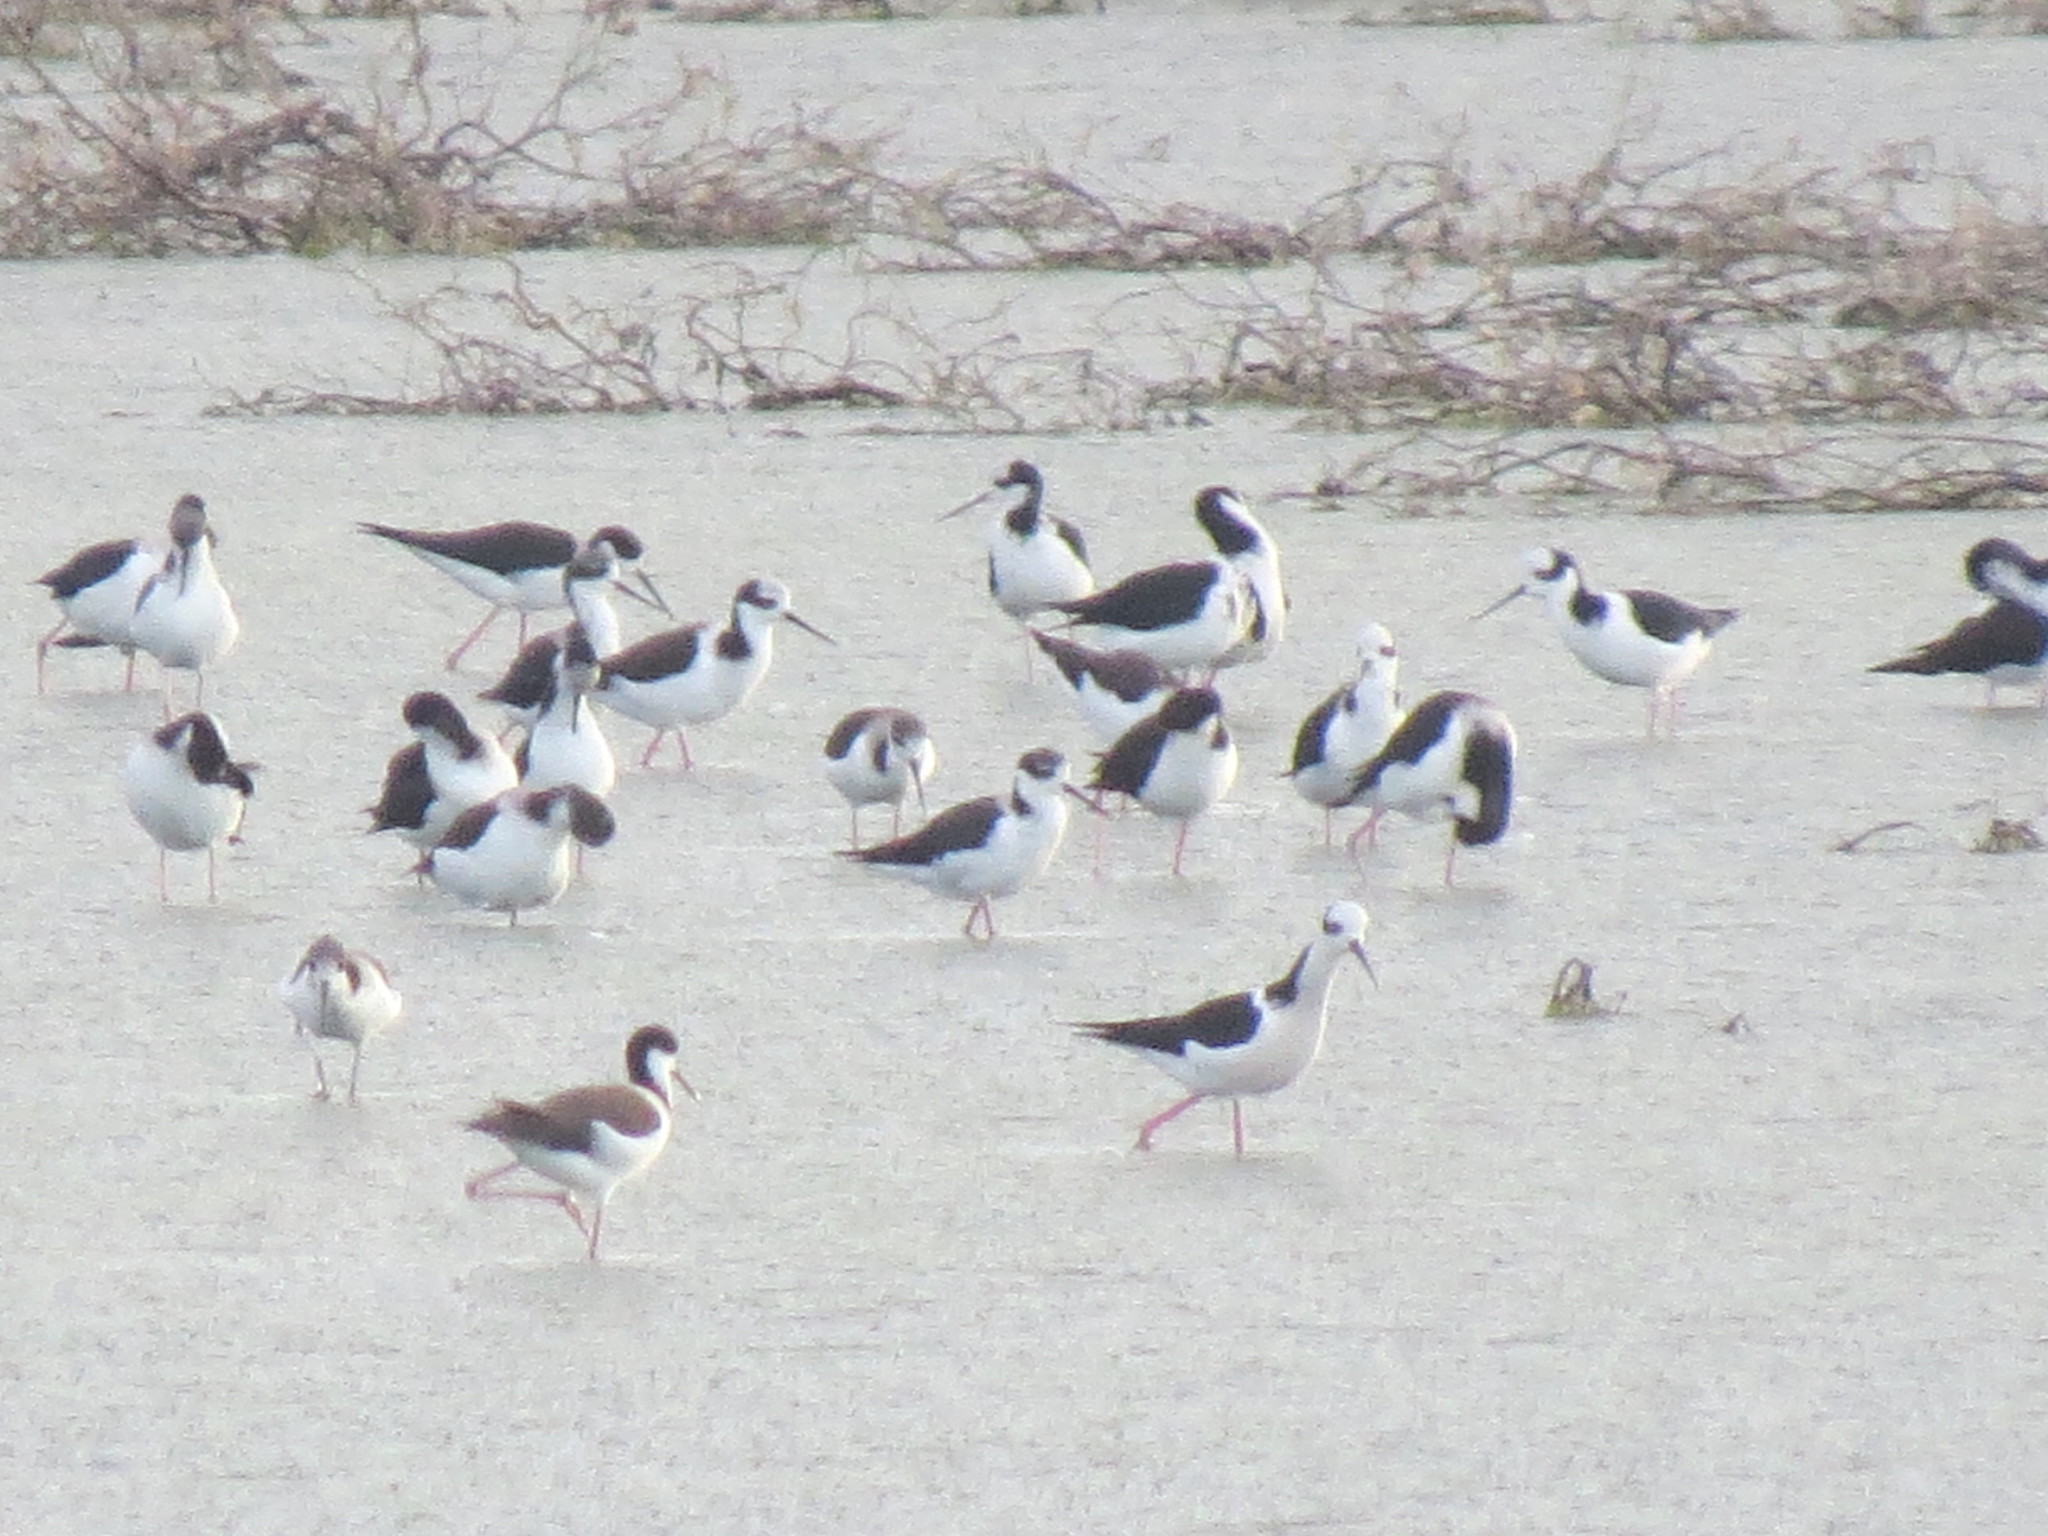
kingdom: Animalia
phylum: Chordata
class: Aves
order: Charadriiformes
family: Recurvirostridae
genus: Himantopus
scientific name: Himantopus mexicanus
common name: Black-necked stilt
